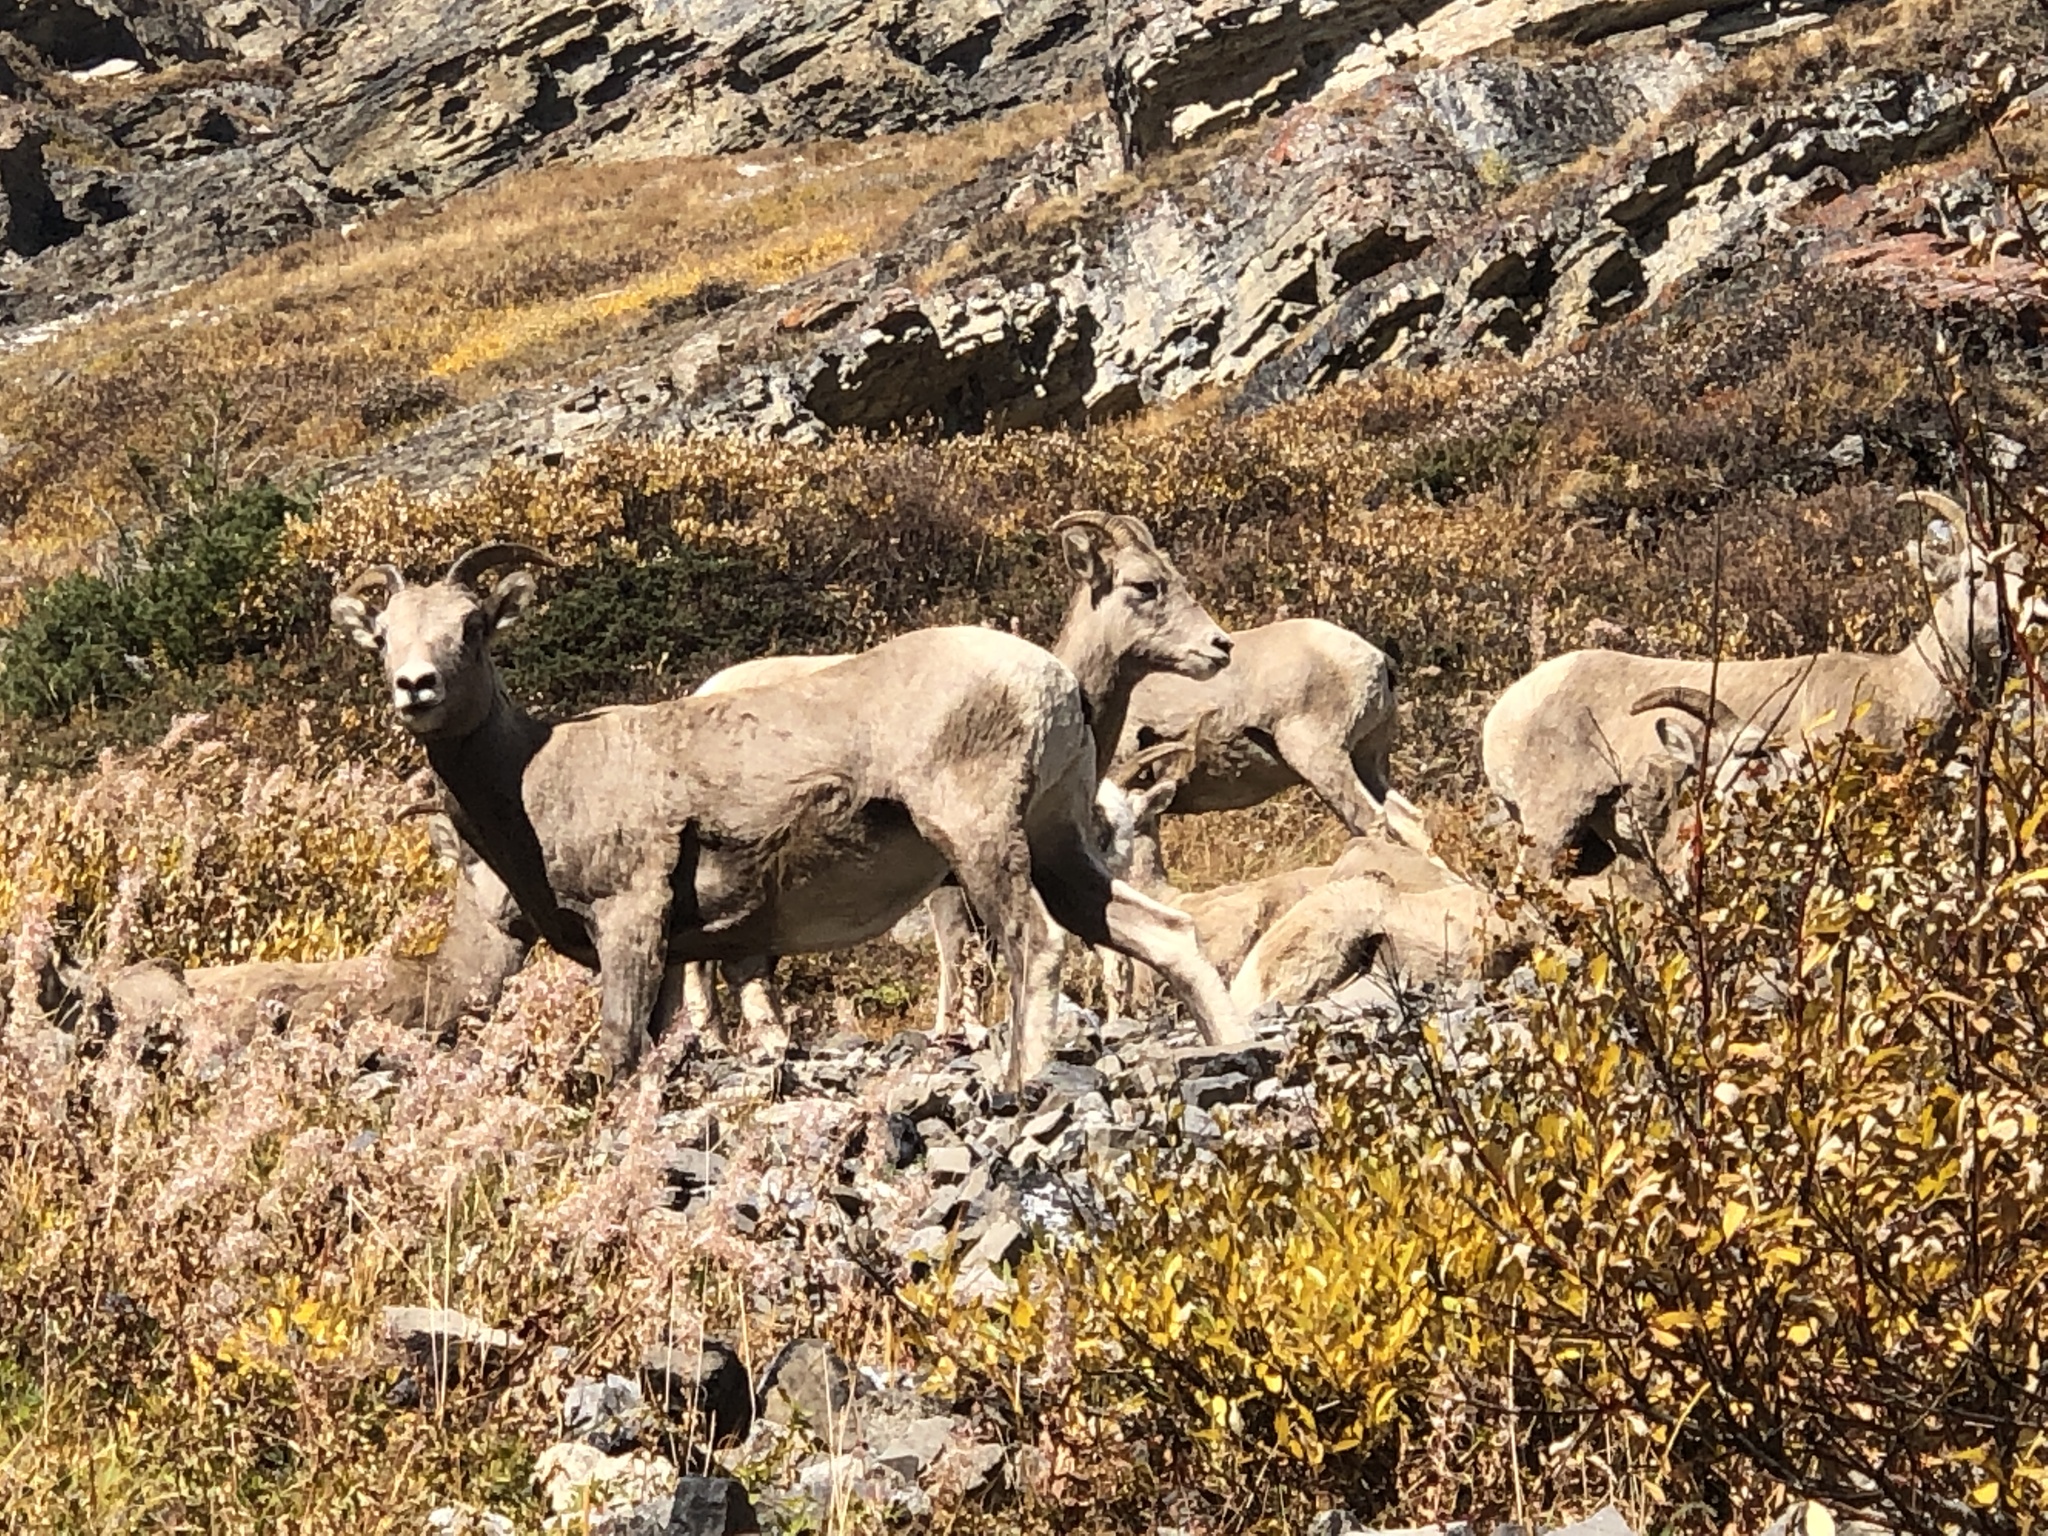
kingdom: Animalia
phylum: Chordata
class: Mammalia
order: Artiodactyla
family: Bovidae
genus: Ovis
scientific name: Ovis canadensis
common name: Bighorn sheep
